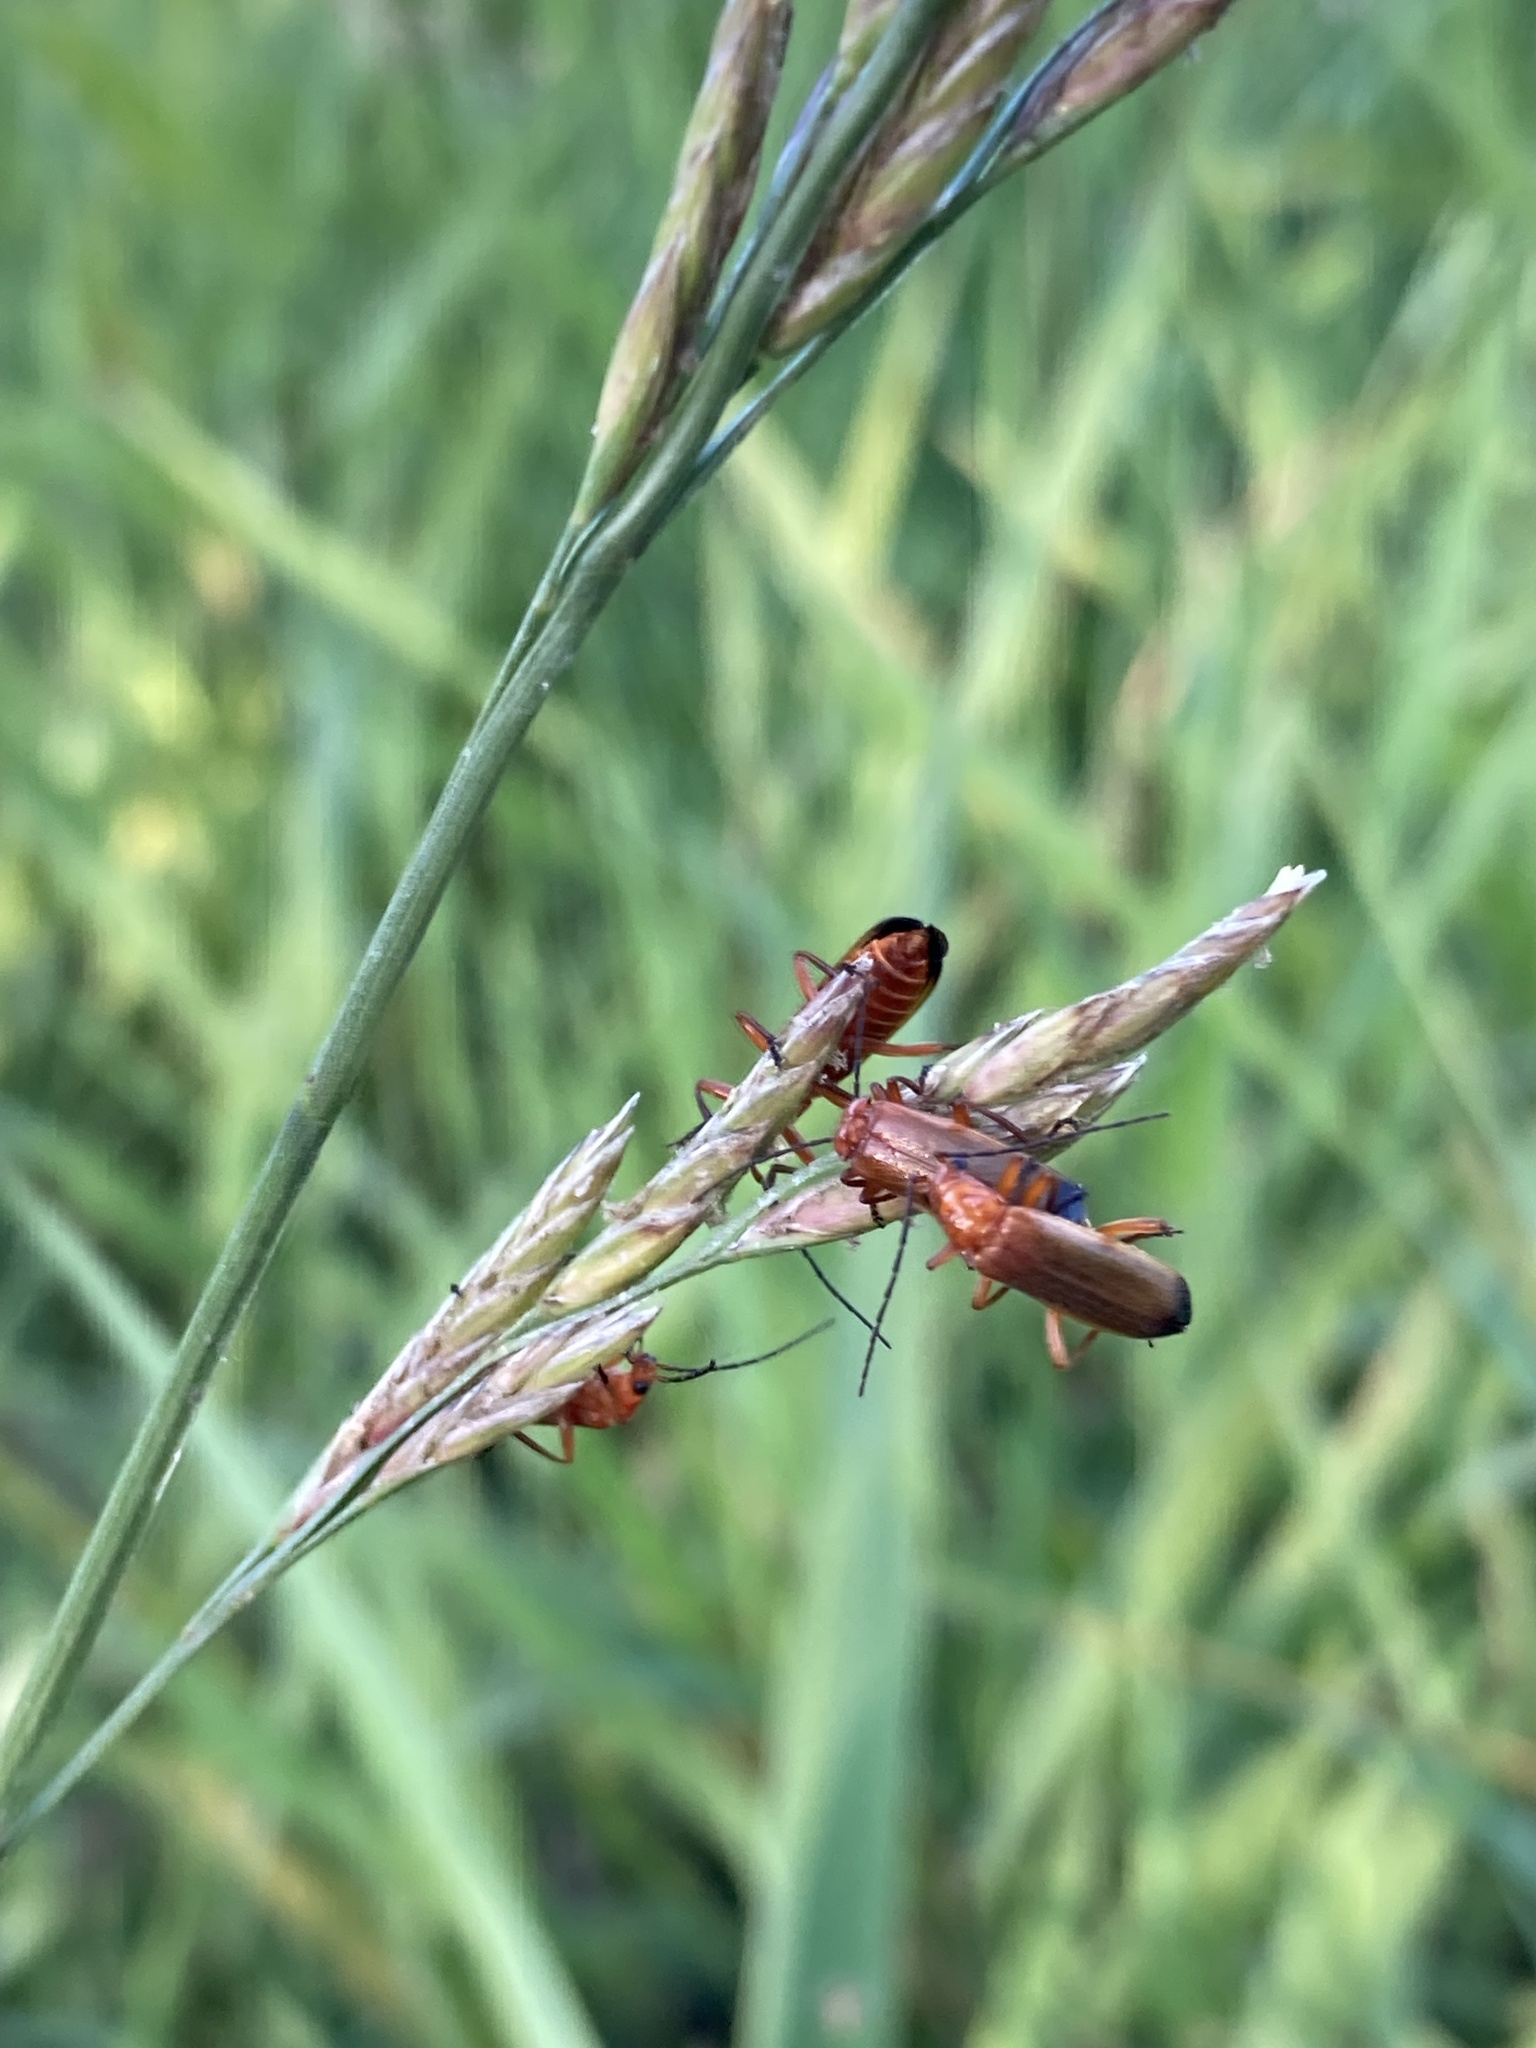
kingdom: Animalia
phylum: Arthropoda
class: Insecta
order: Coleoptera
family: Cantharidae
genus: Rhagonycha
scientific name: Rhagonycha fulva
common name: Common red soldier beetle
